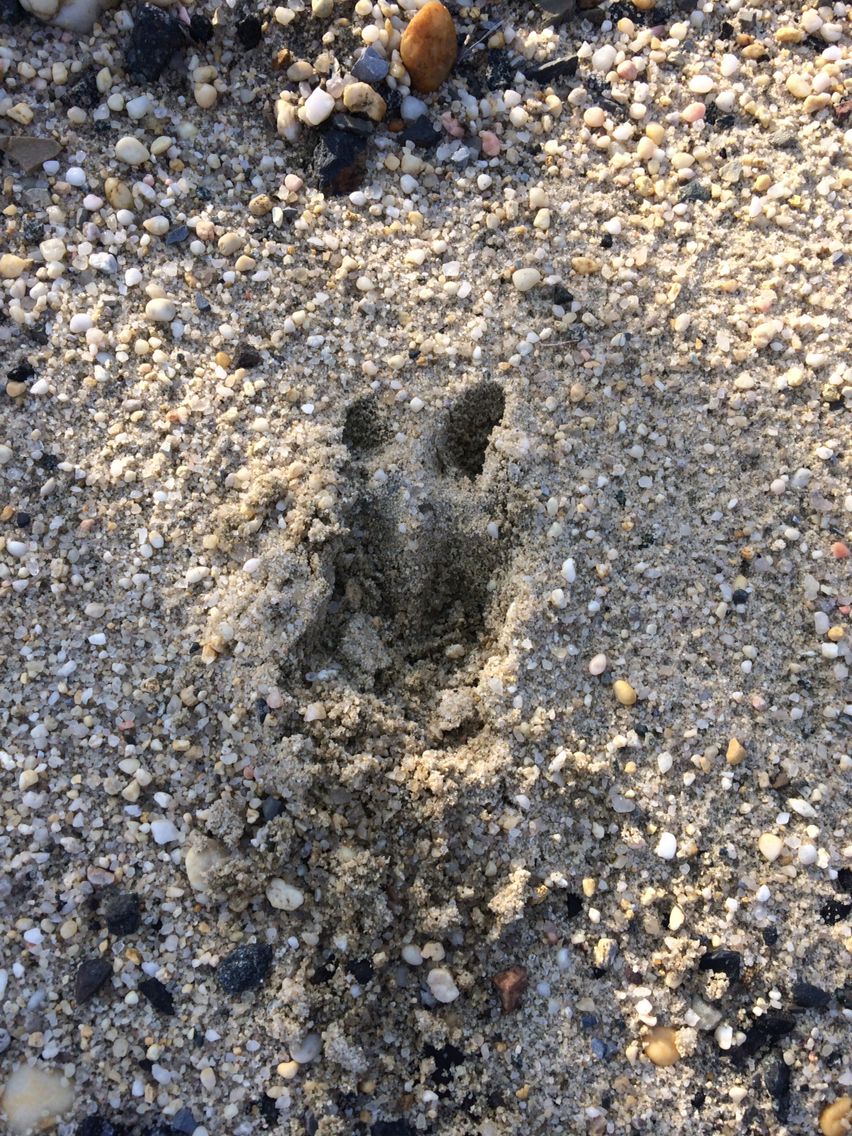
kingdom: Animalia
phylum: Chordata
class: Mammalia
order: Artiodactyla
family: Cervidae
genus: Odocoileus
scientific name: Odocoileus virginianus
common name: White-tailed deer
